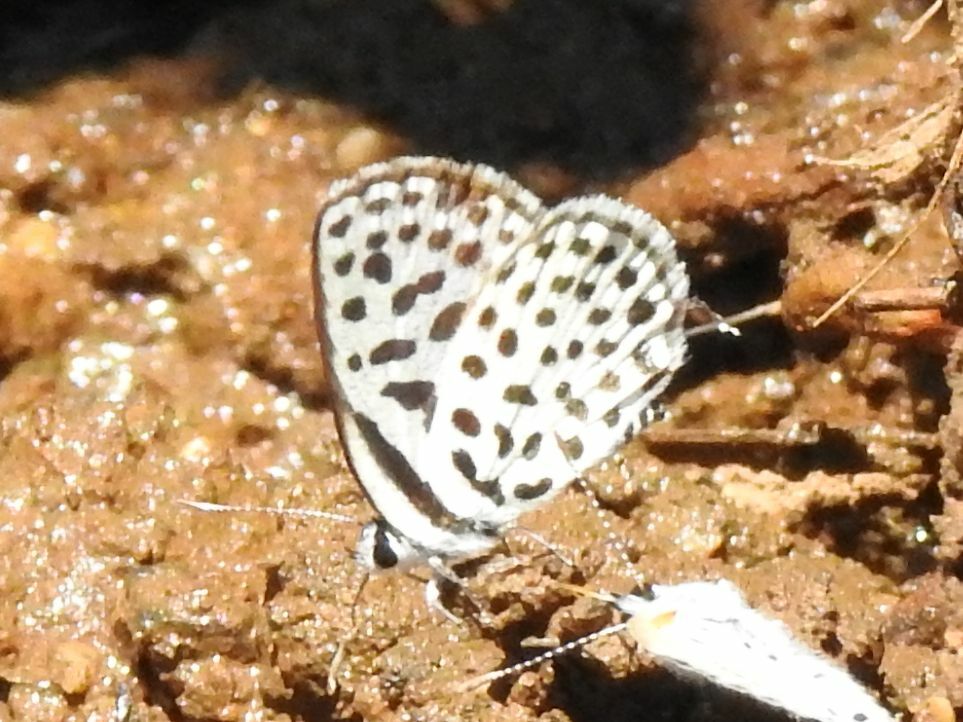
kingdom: Animalia
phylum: Arthropoda
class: Insecta
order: Lepidoptera
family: Lycaenidae
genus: Tarucus
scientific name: Tarucus sybaris
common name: Dotted blue
